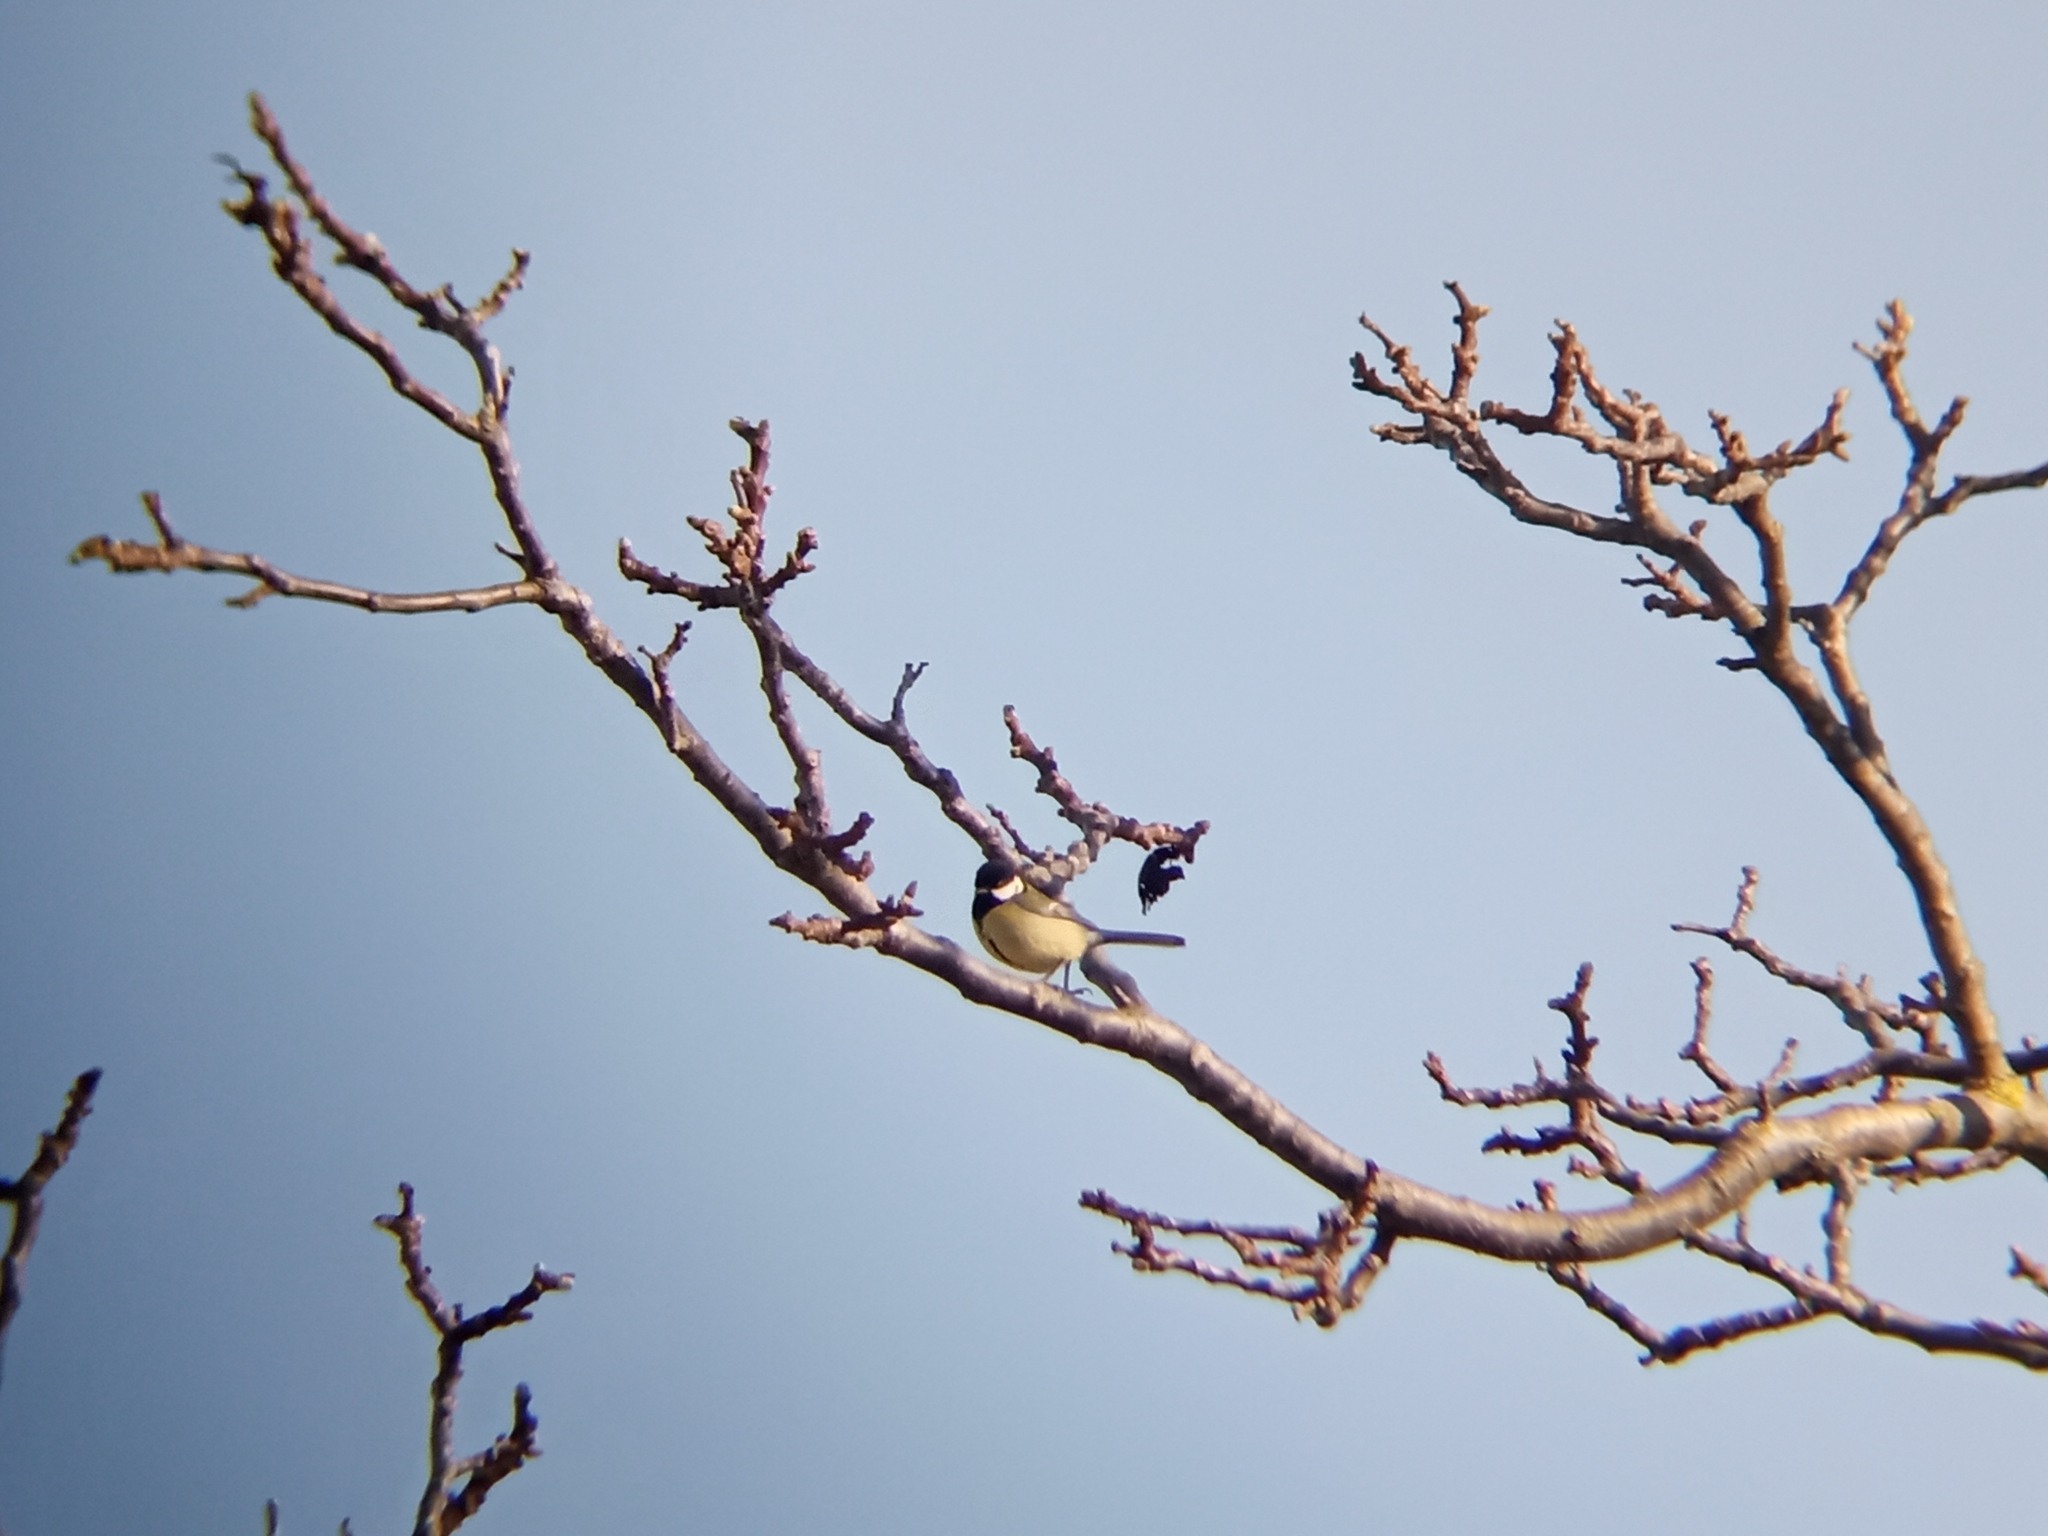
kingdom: Animalia
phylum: Chordata
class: Aves
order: Passeriformes
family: Paridae
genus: Parus
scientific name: Parus major
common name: Great tit
